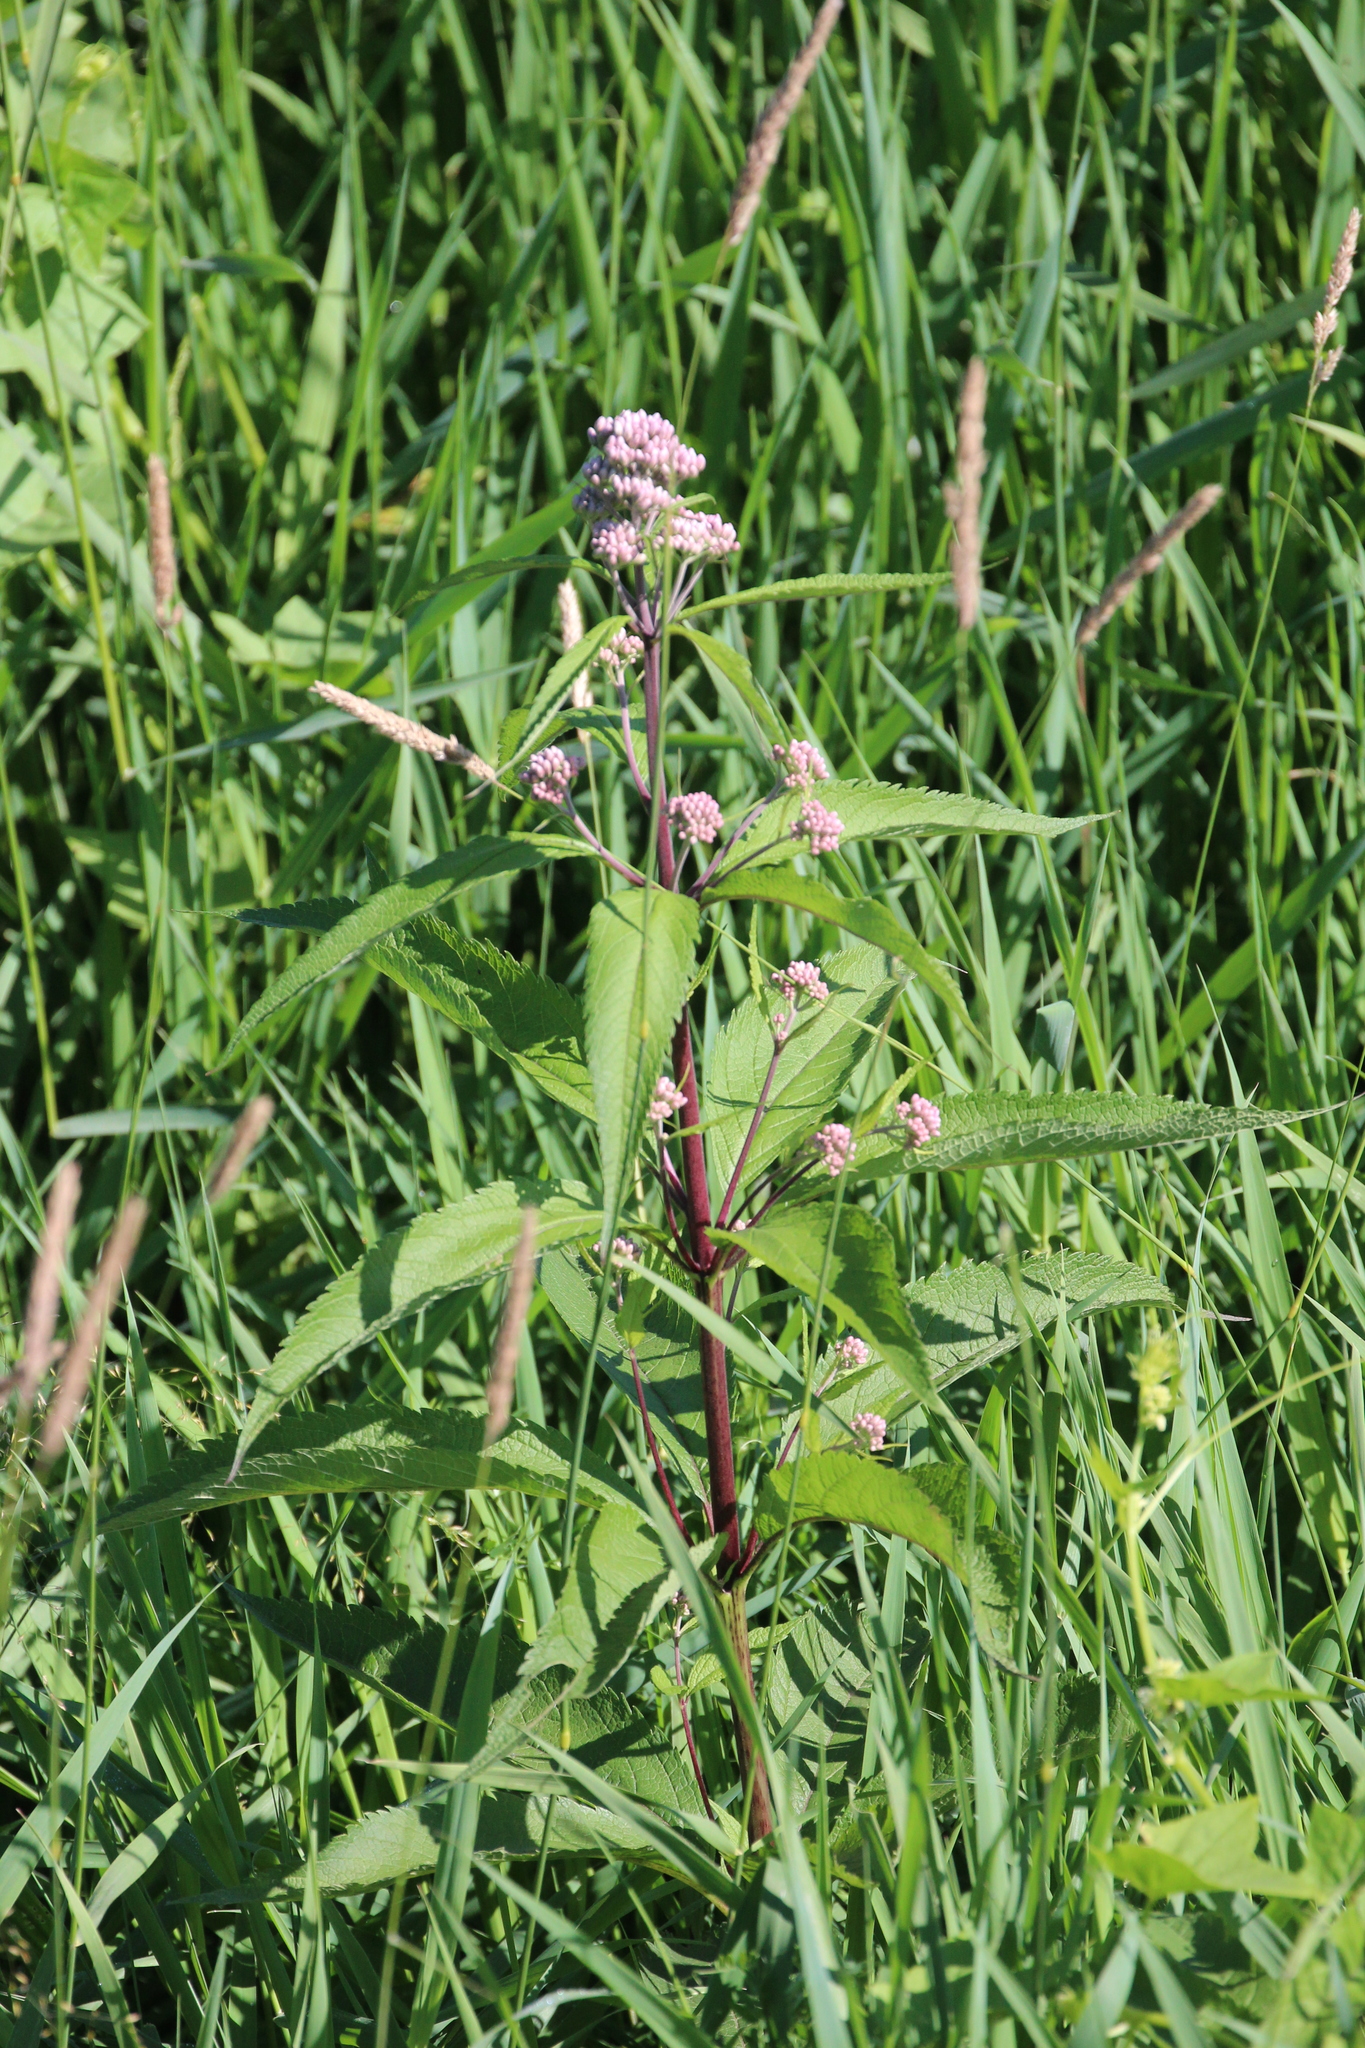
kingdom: Plantae
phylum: Tracheophyta
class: Magnoliopsida
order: Asterales
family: Asteraceae
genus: Eutrochium
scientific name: Eutrochium maculatum
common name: Spotted joe pye weed
